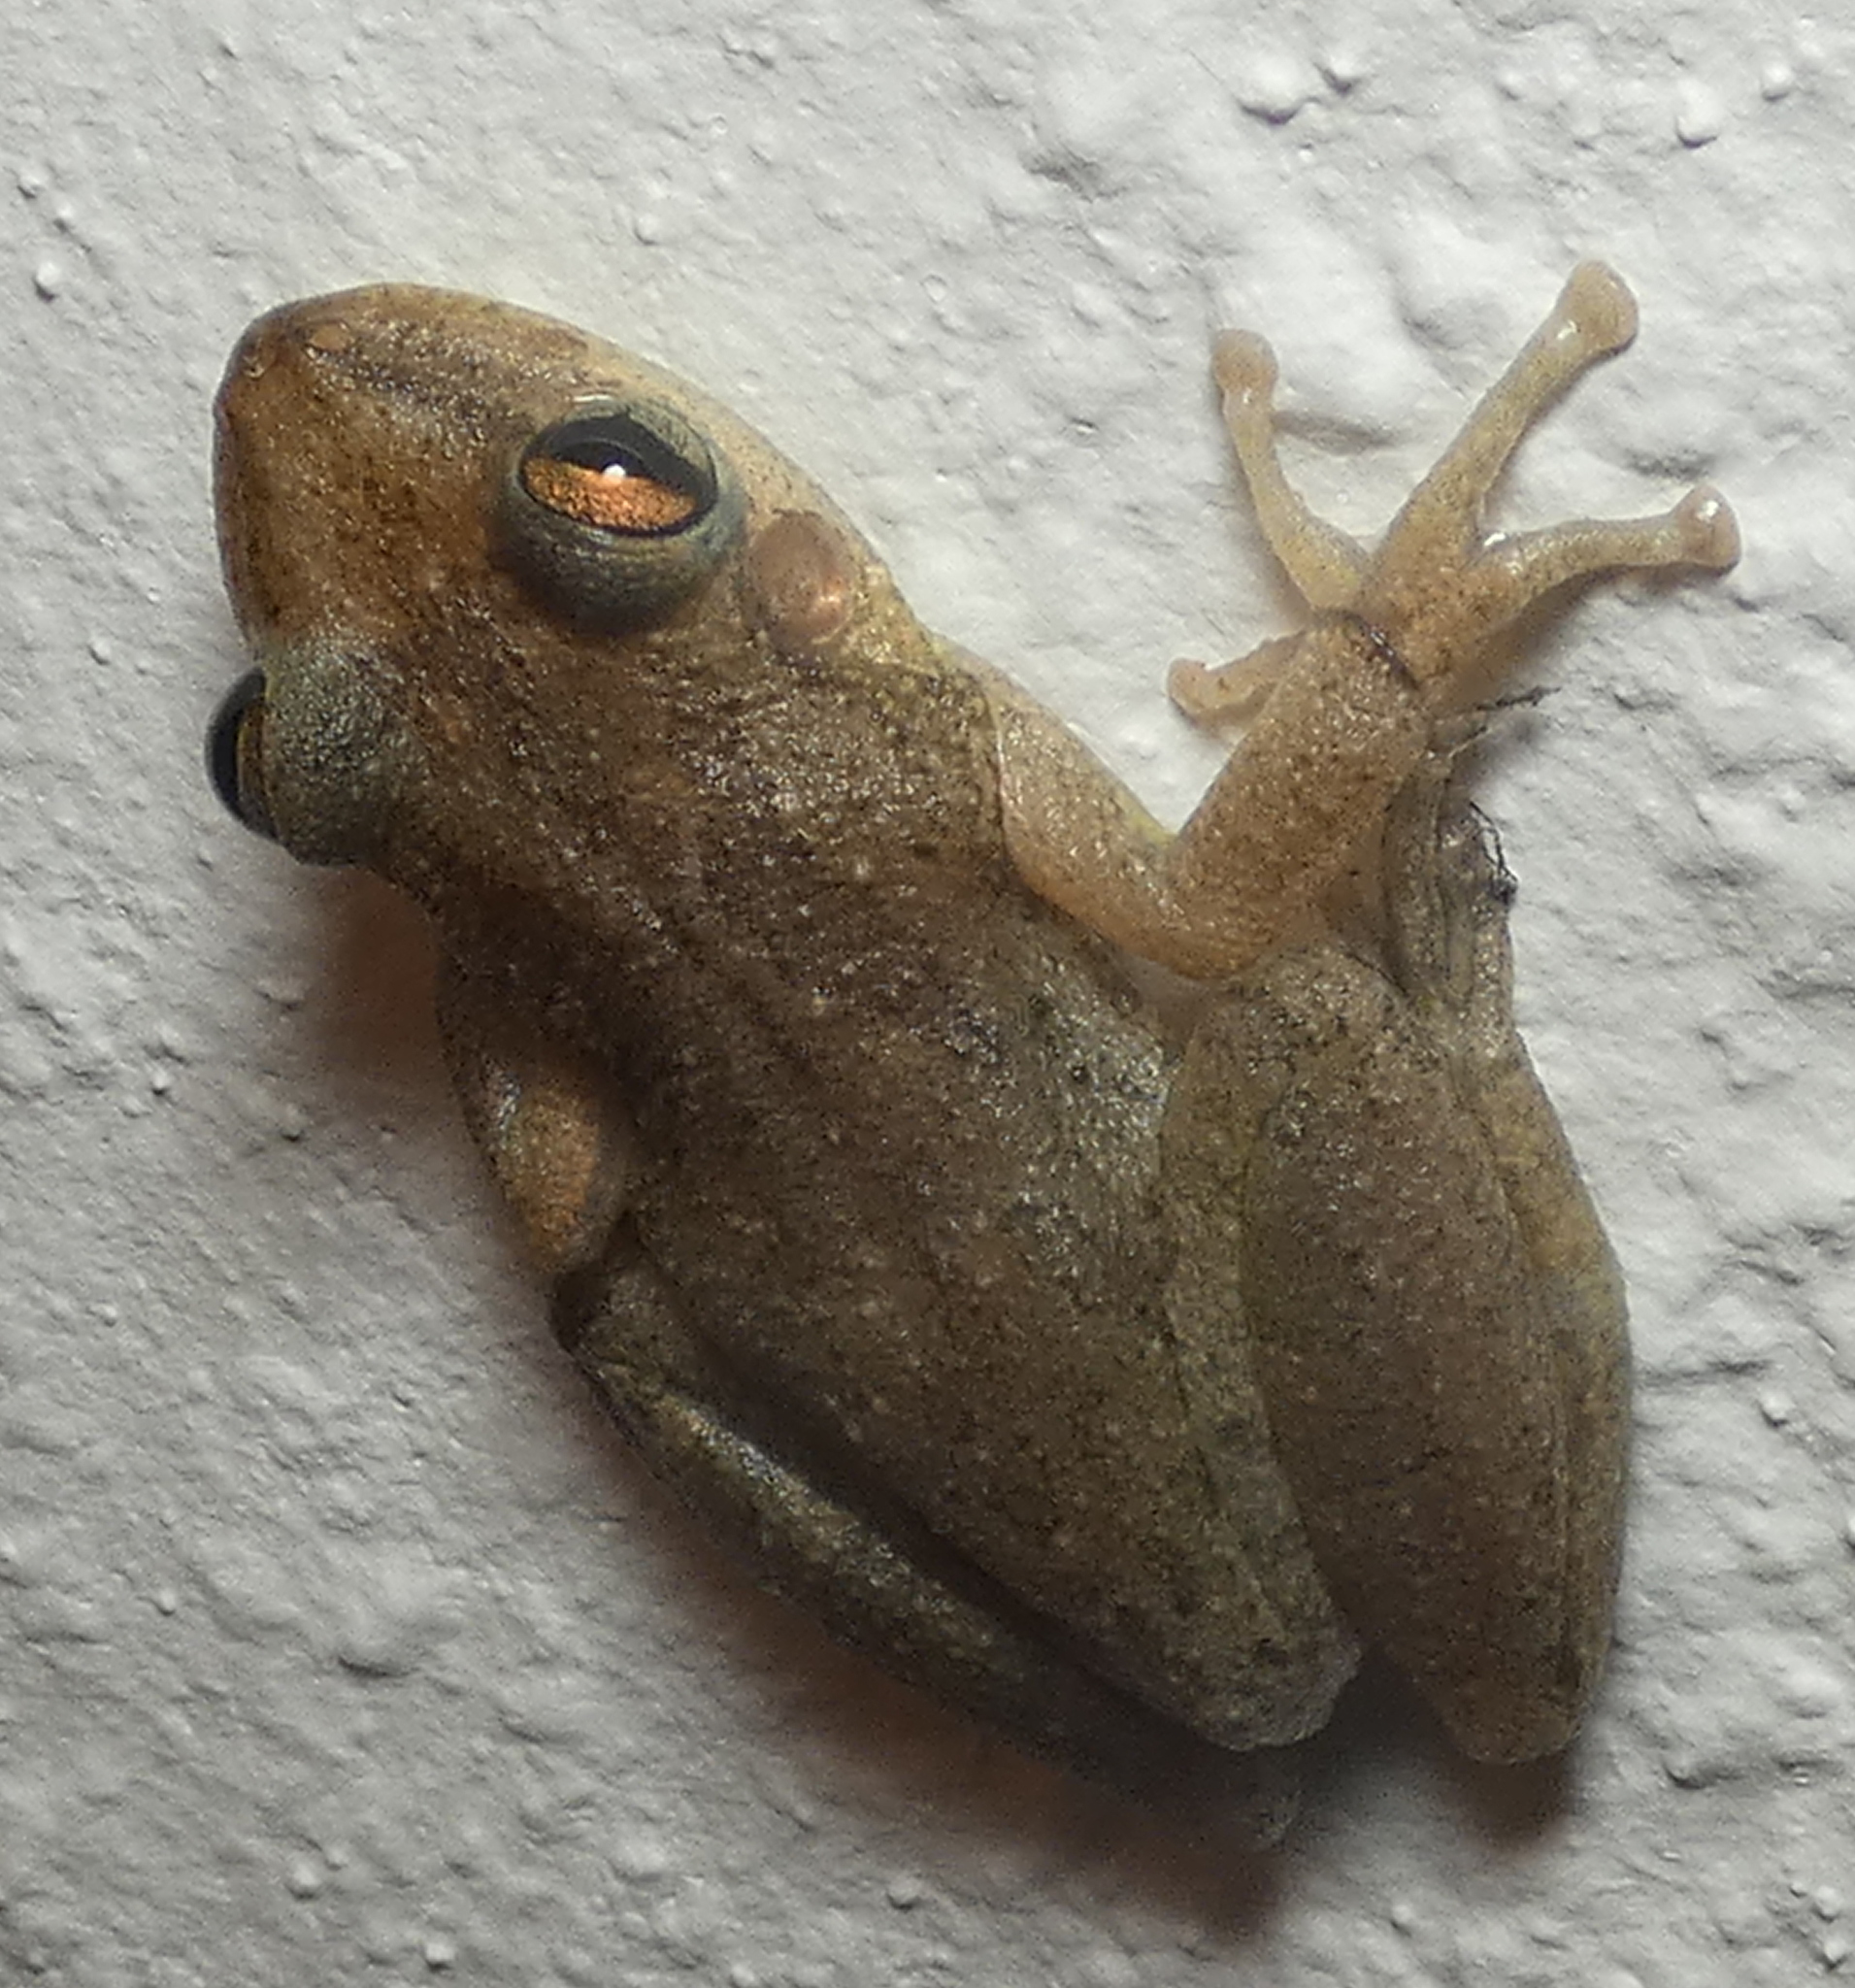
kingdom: Animalia
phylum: Chordata
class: Amphibia
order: Anura
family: Hylidae
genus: Scinax
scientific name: Scinax x-signatus
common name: Venezuela snouted treefrog
